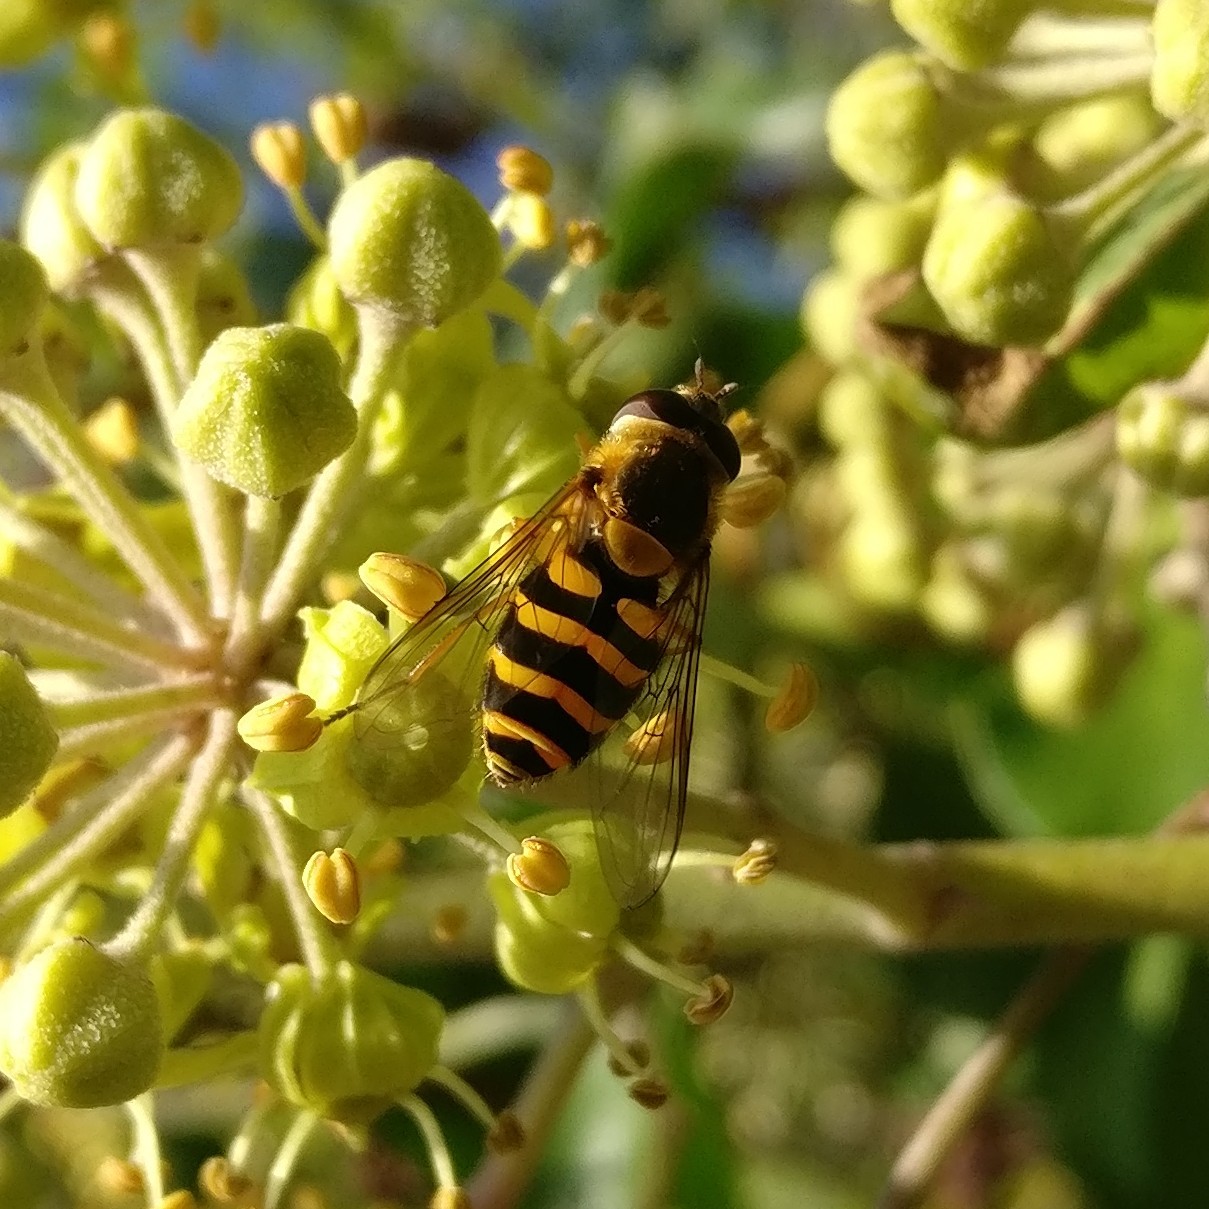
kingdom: Animalia
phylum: Arthropoda
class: Insecta
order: Diptera
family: Syrphidae
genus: Syrphus
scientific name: Syrphus
